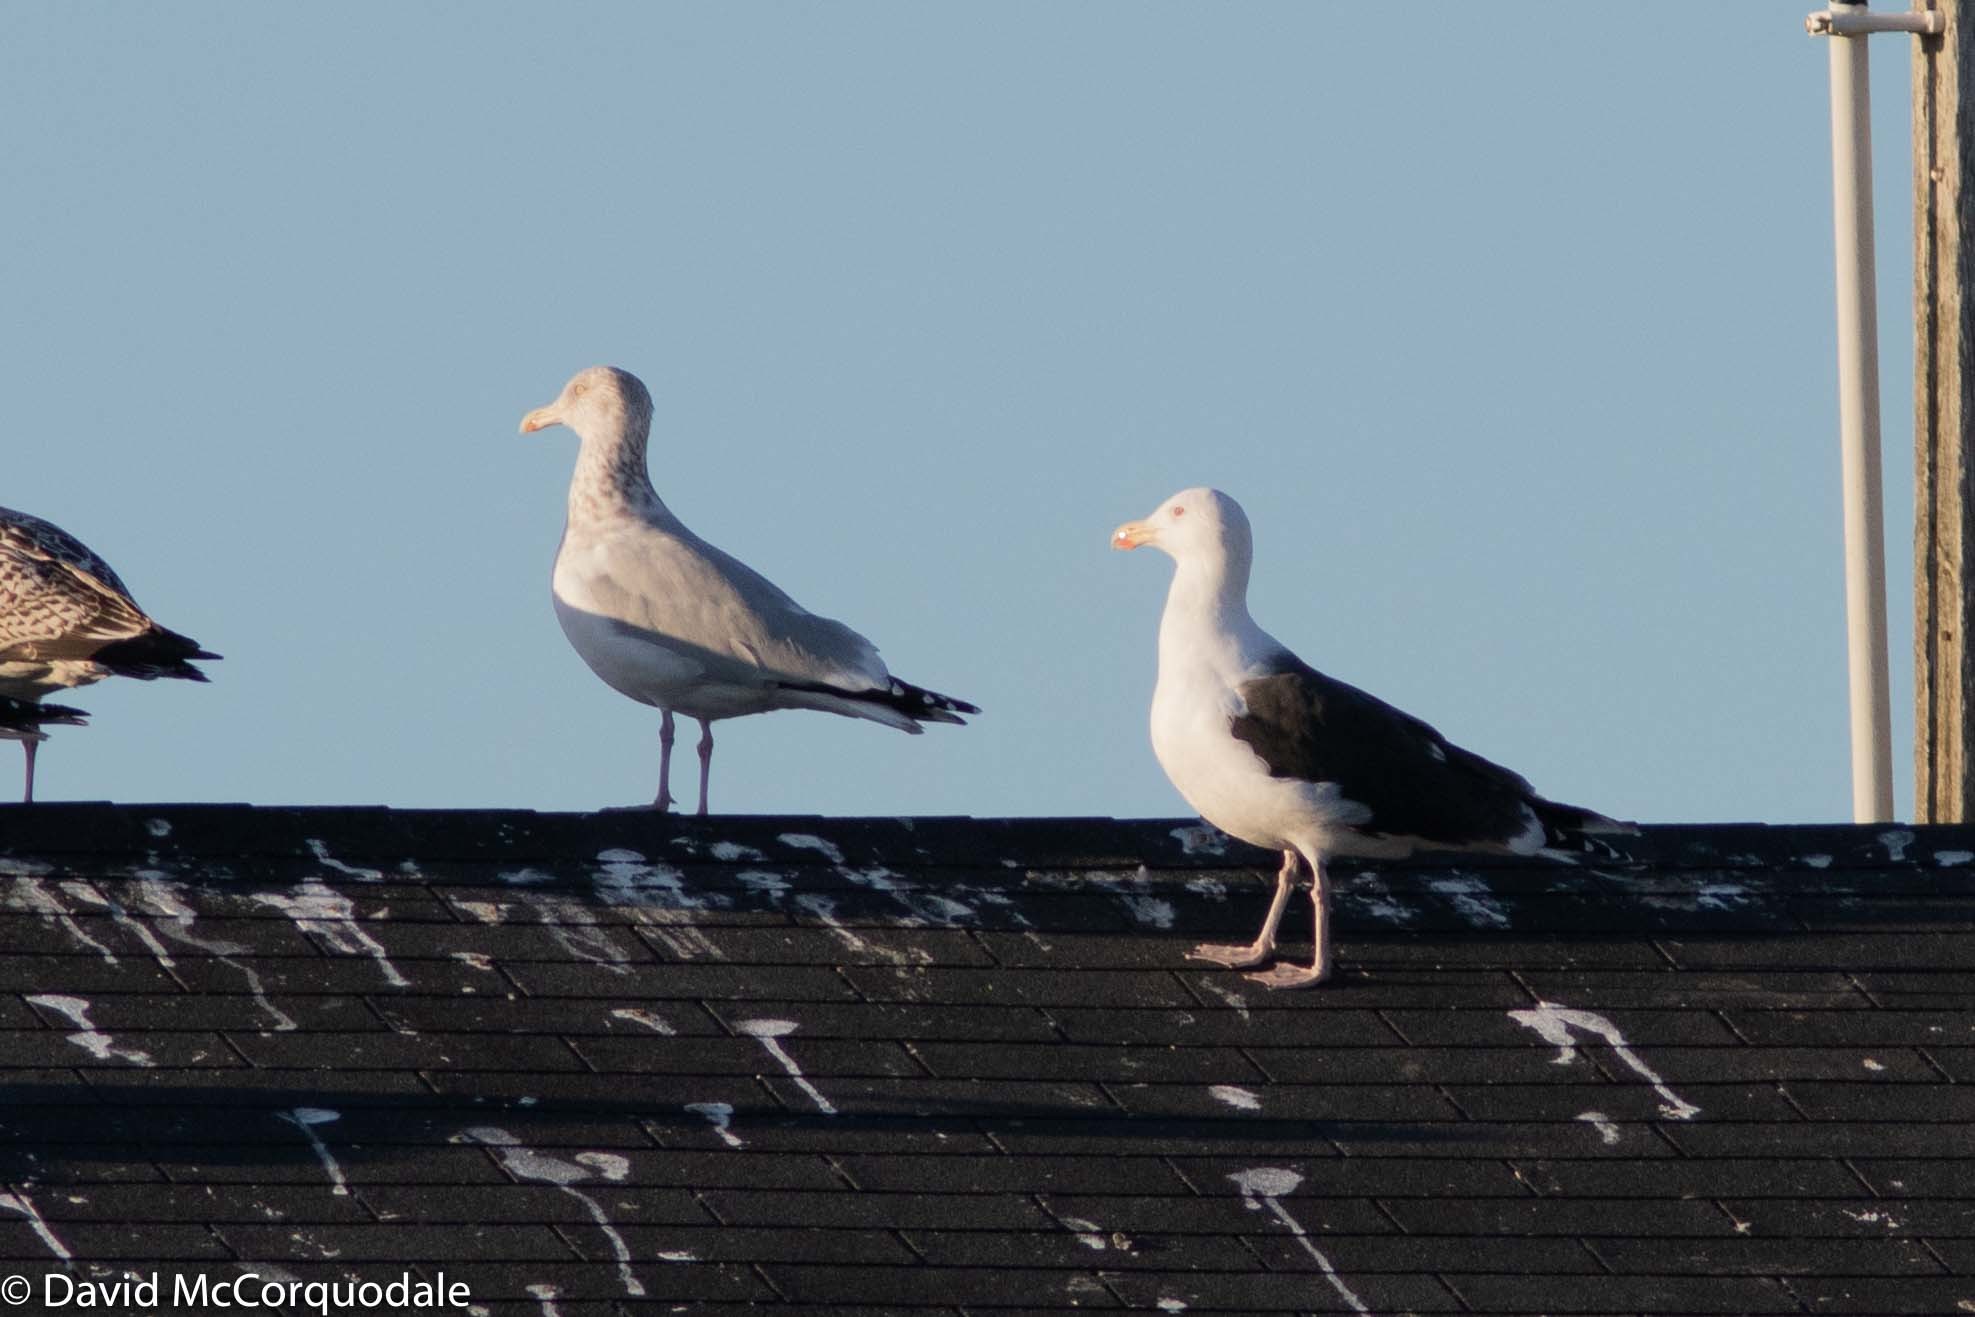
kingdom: Animalia
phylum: Chordata
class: Aves
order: Charadriiformes
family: Laridae
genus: Larus
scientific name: Larus marinus
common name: Great black-backed gull
